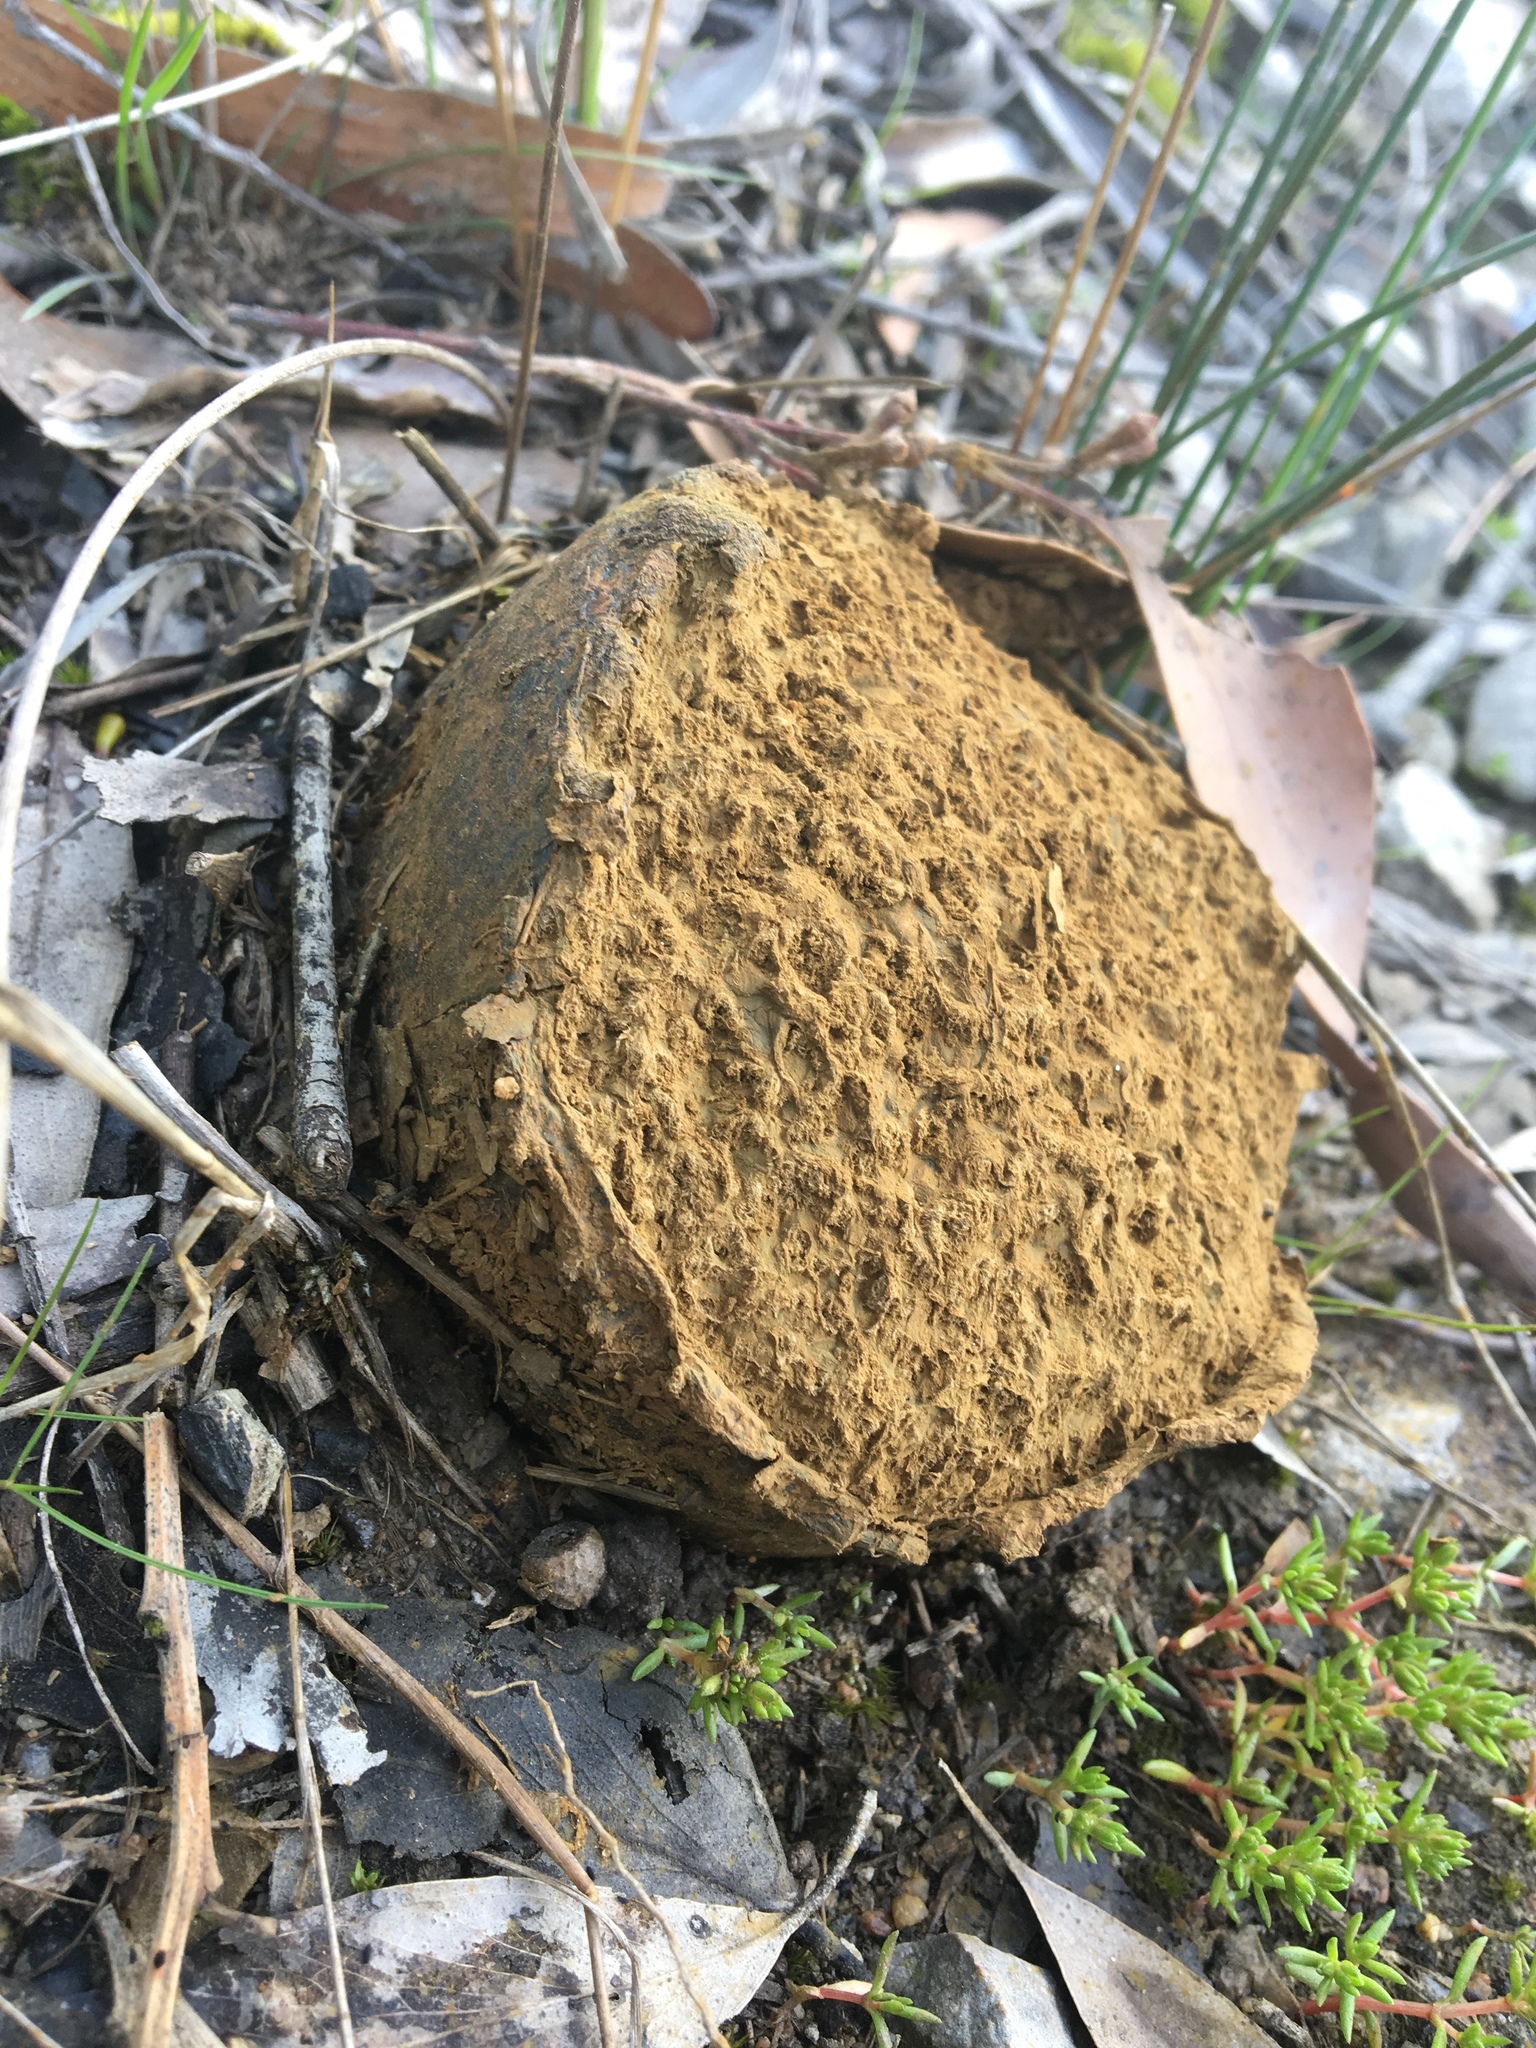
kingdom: Fungi
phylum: Basidiomycota
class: Agaricomycetes
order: Boletales
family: Sclerodermataceae
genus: Pisolithus
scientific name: Pisolithus arhizus
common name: Dyeball
